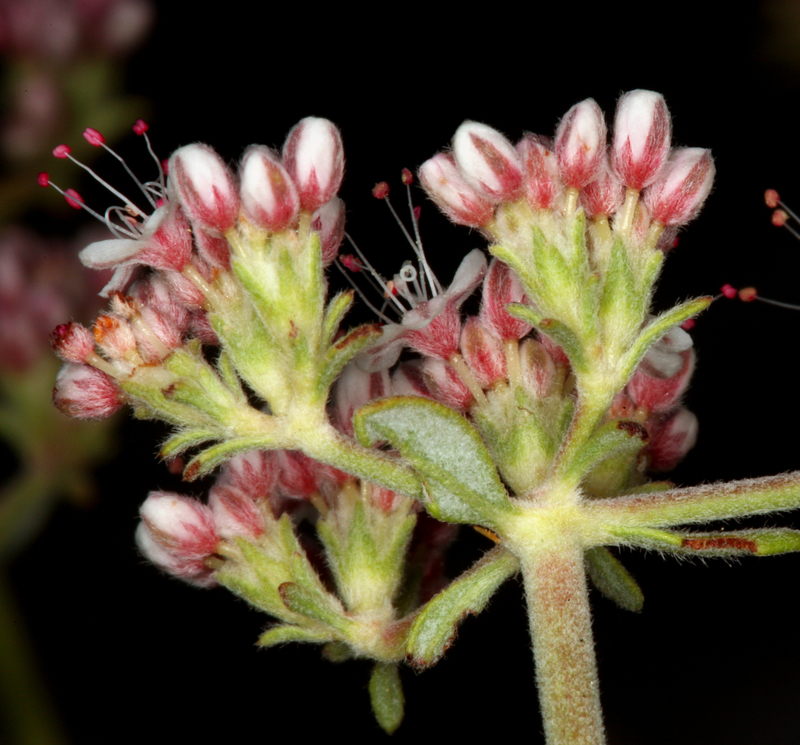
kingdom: Plantae
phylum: Tracheophyta
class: Magnoliopsida
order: Caryophyllales
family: Polygonaceae
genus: Eriogonum
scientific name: Eriogonum fasciculatum
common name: California wild buckwheat
